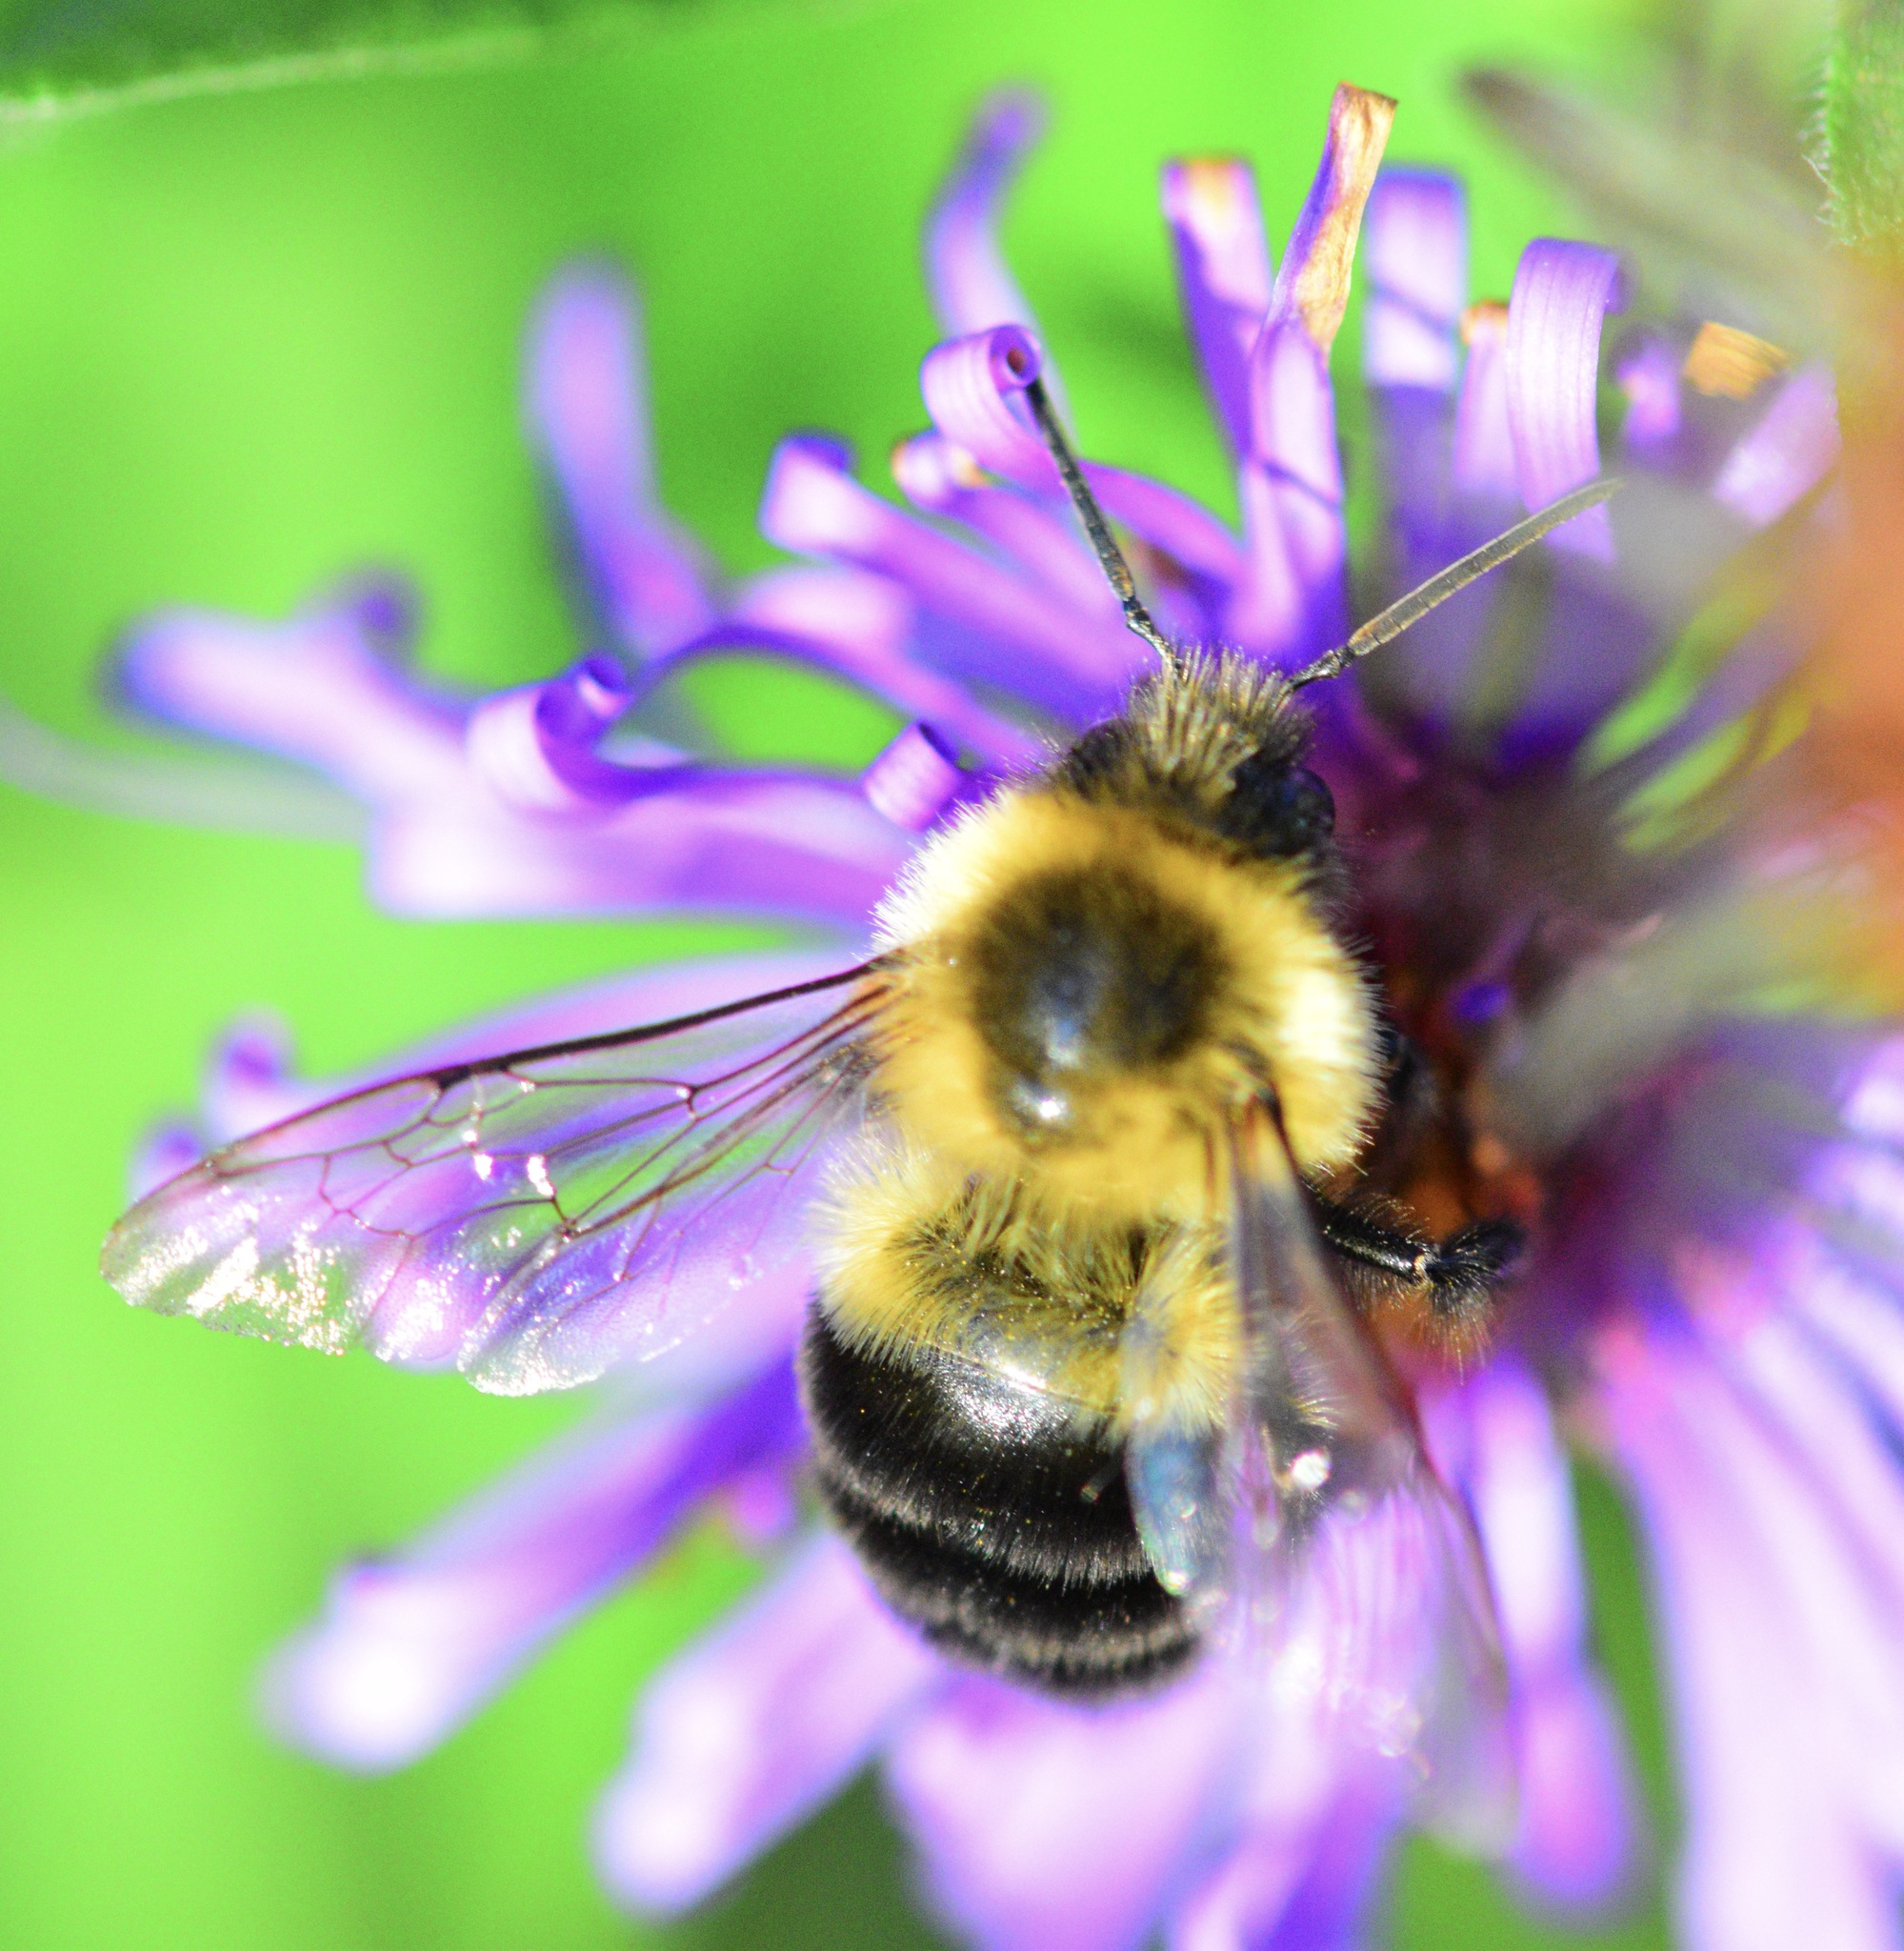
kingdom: Animalia
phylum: Arthropoda
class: Insecta
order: Hymenoptera
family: Apidae
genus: Bombus
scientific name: Bombus impatiens
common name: Common eastern bumble bee
